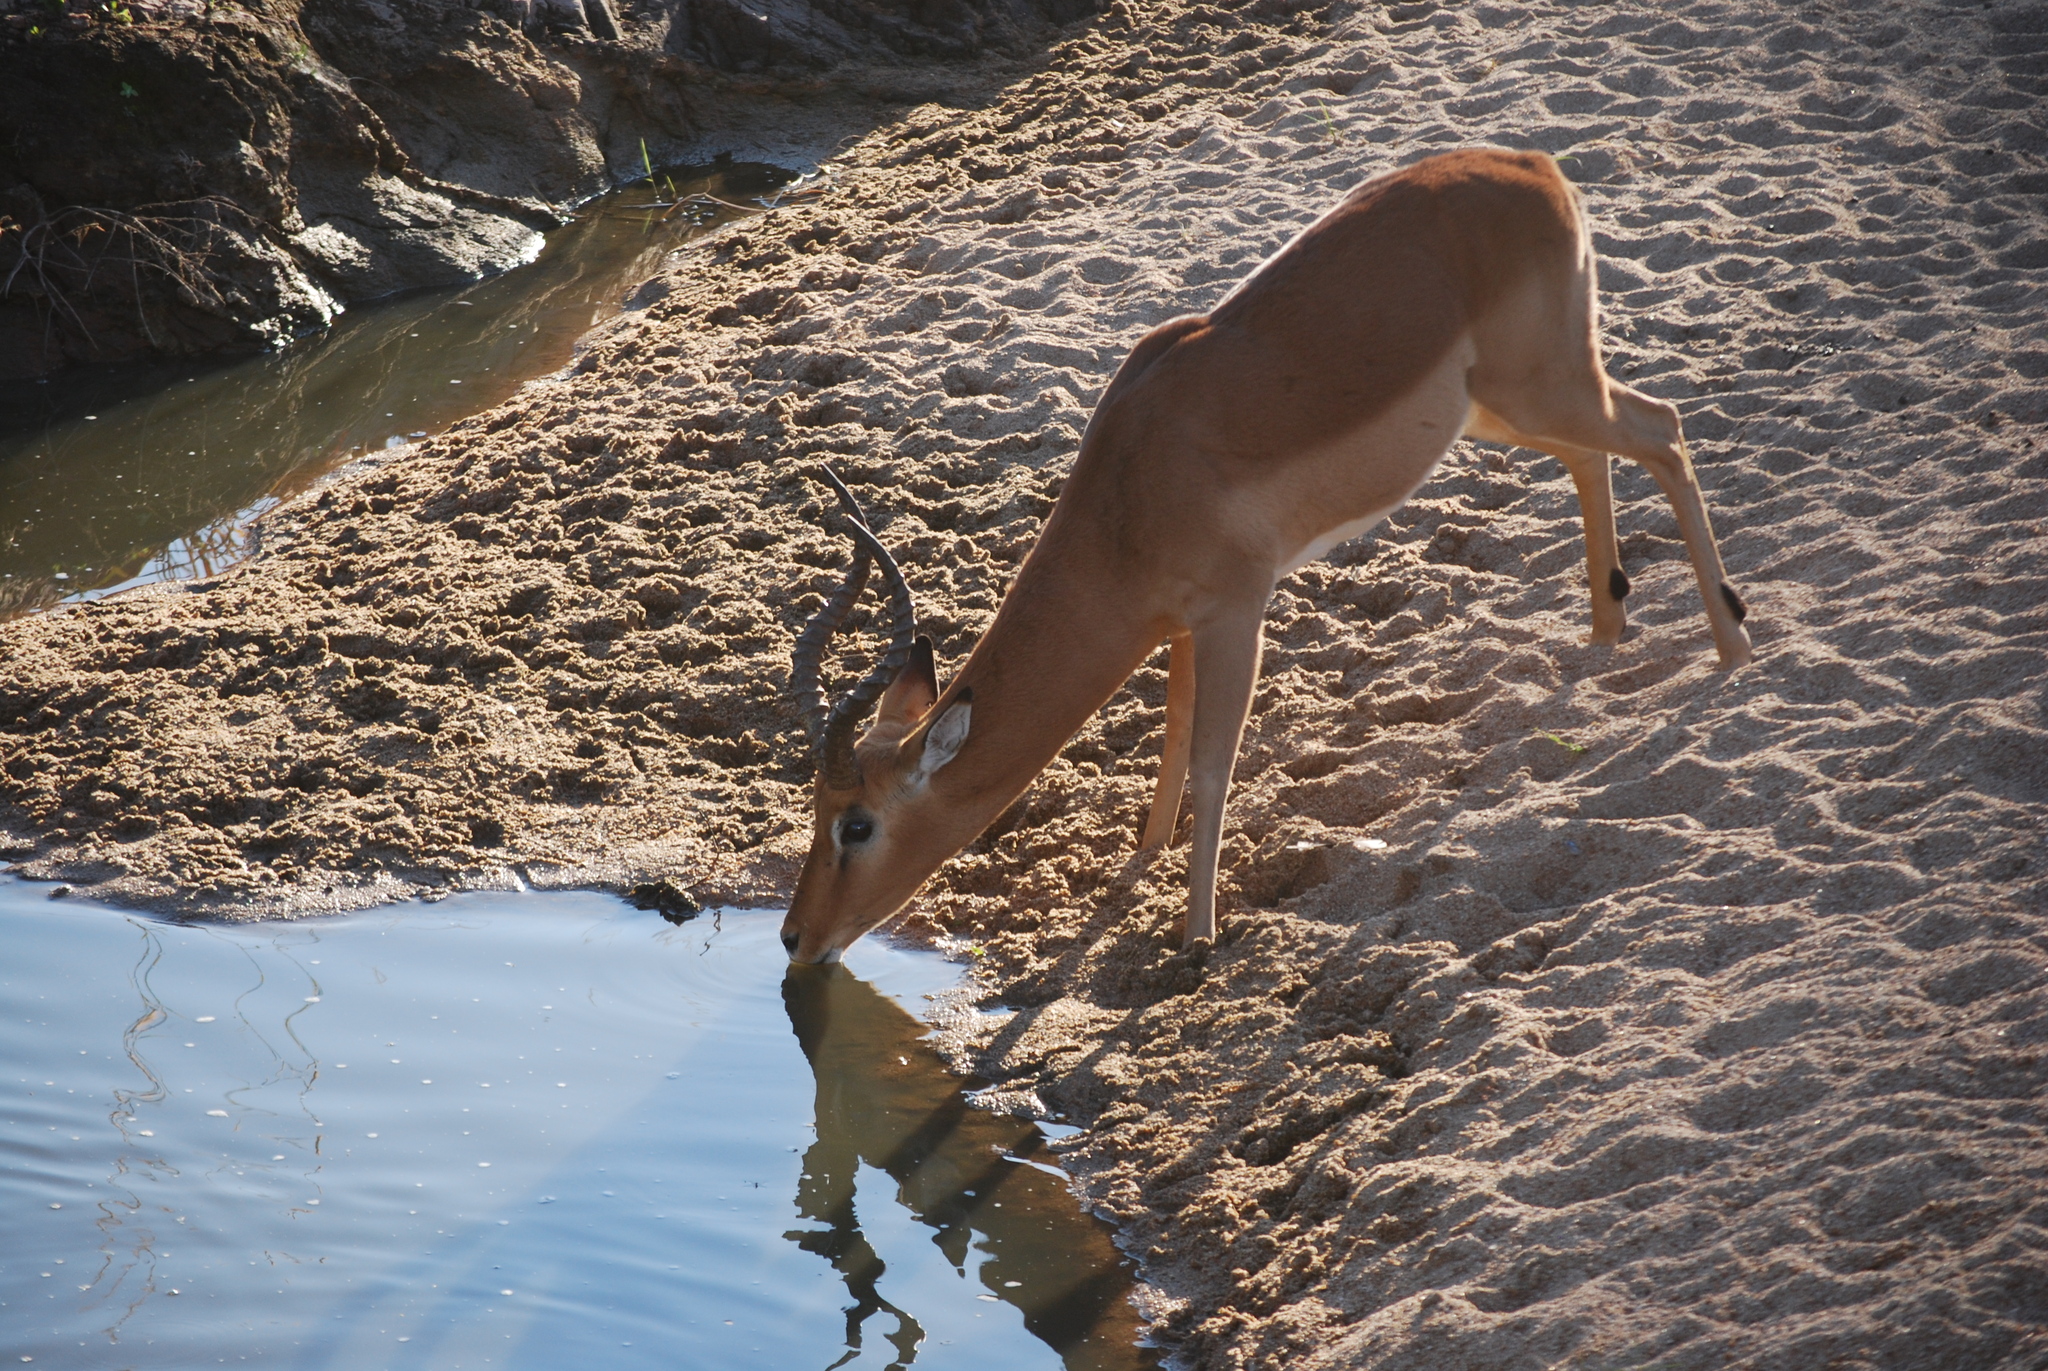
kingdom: Animalia
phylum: Chordata
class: Mammalia
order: Artiodactyla
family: Bovidae
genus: Aepyceros
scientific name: Aepyceros melampus
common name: Impala
